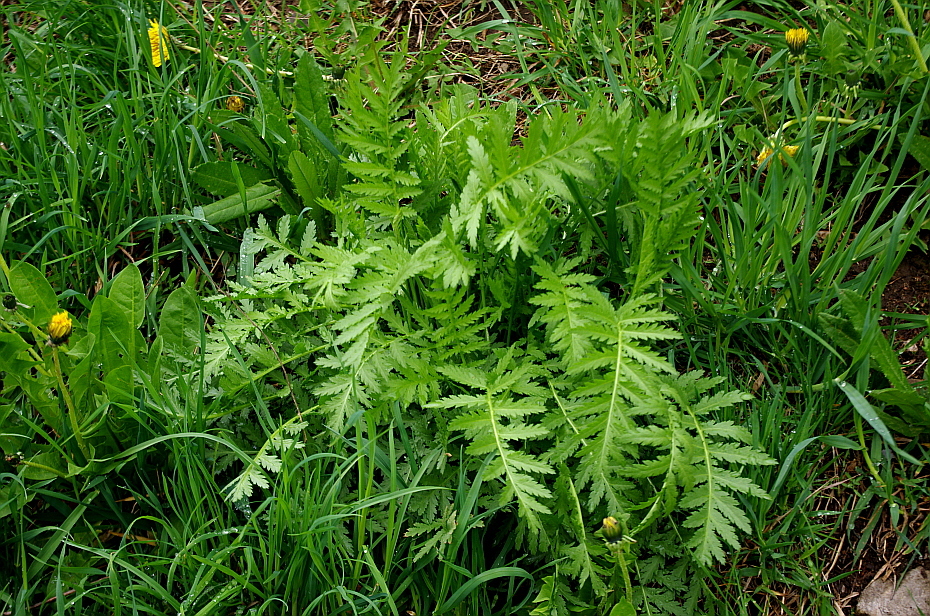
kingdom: Plantae
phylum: Tracheophyta
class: Magnoliopsida
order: Asterales
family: Asteraceae
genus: Tanacetum
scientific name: Tanacetum vulgare
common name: Common tansy
